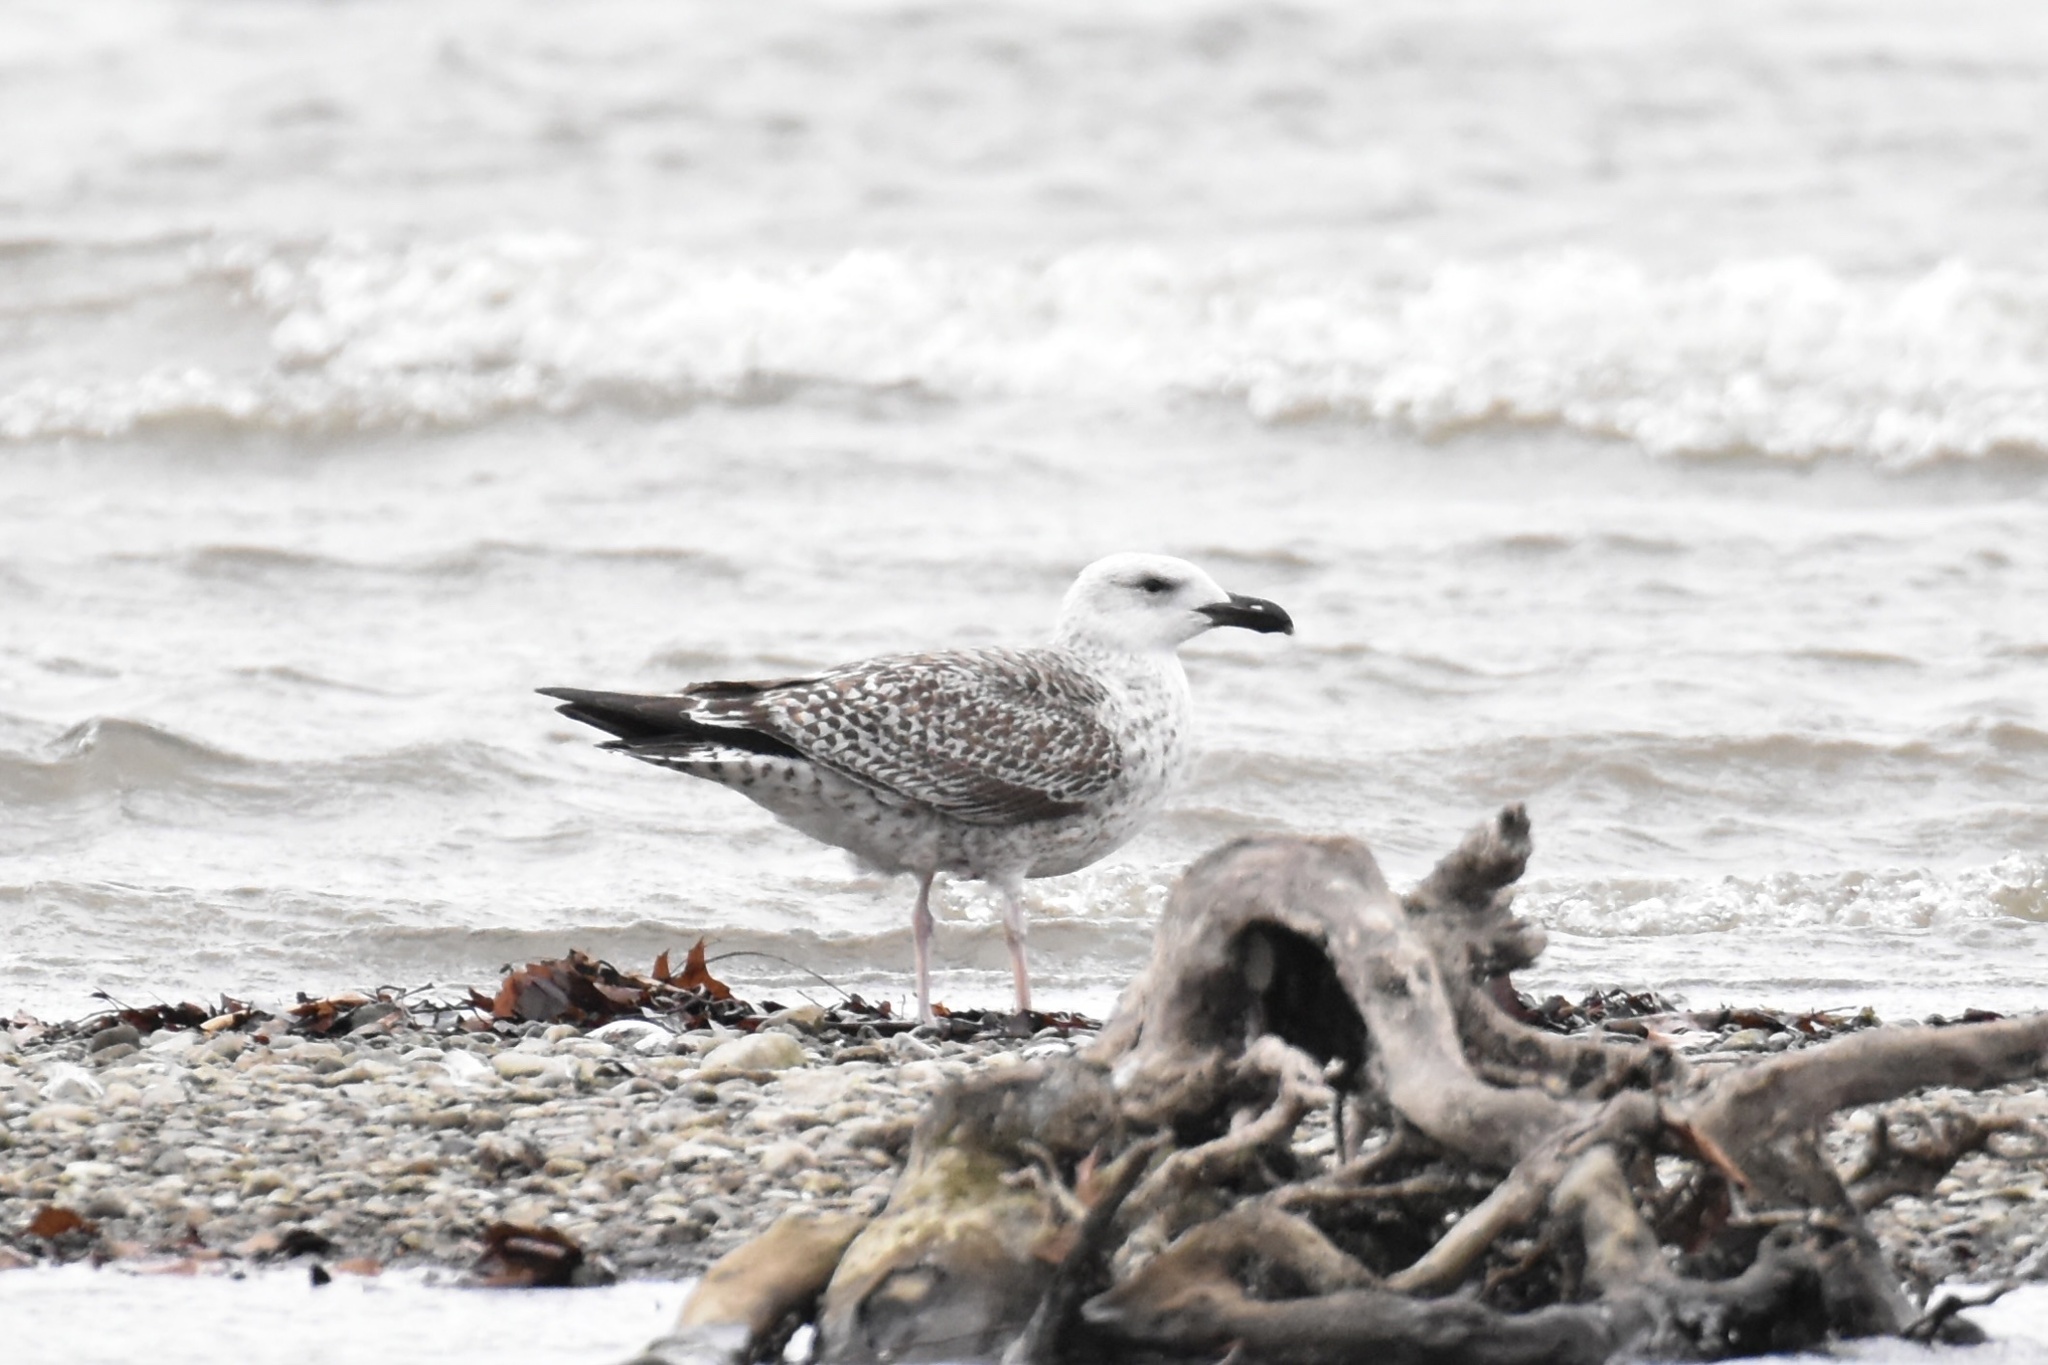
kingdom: Animalia
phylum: Chordata
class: Aves
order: Charadriiformes
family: Laridae
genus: Larus
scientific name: Larus marinus
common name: Great black-backed gull
